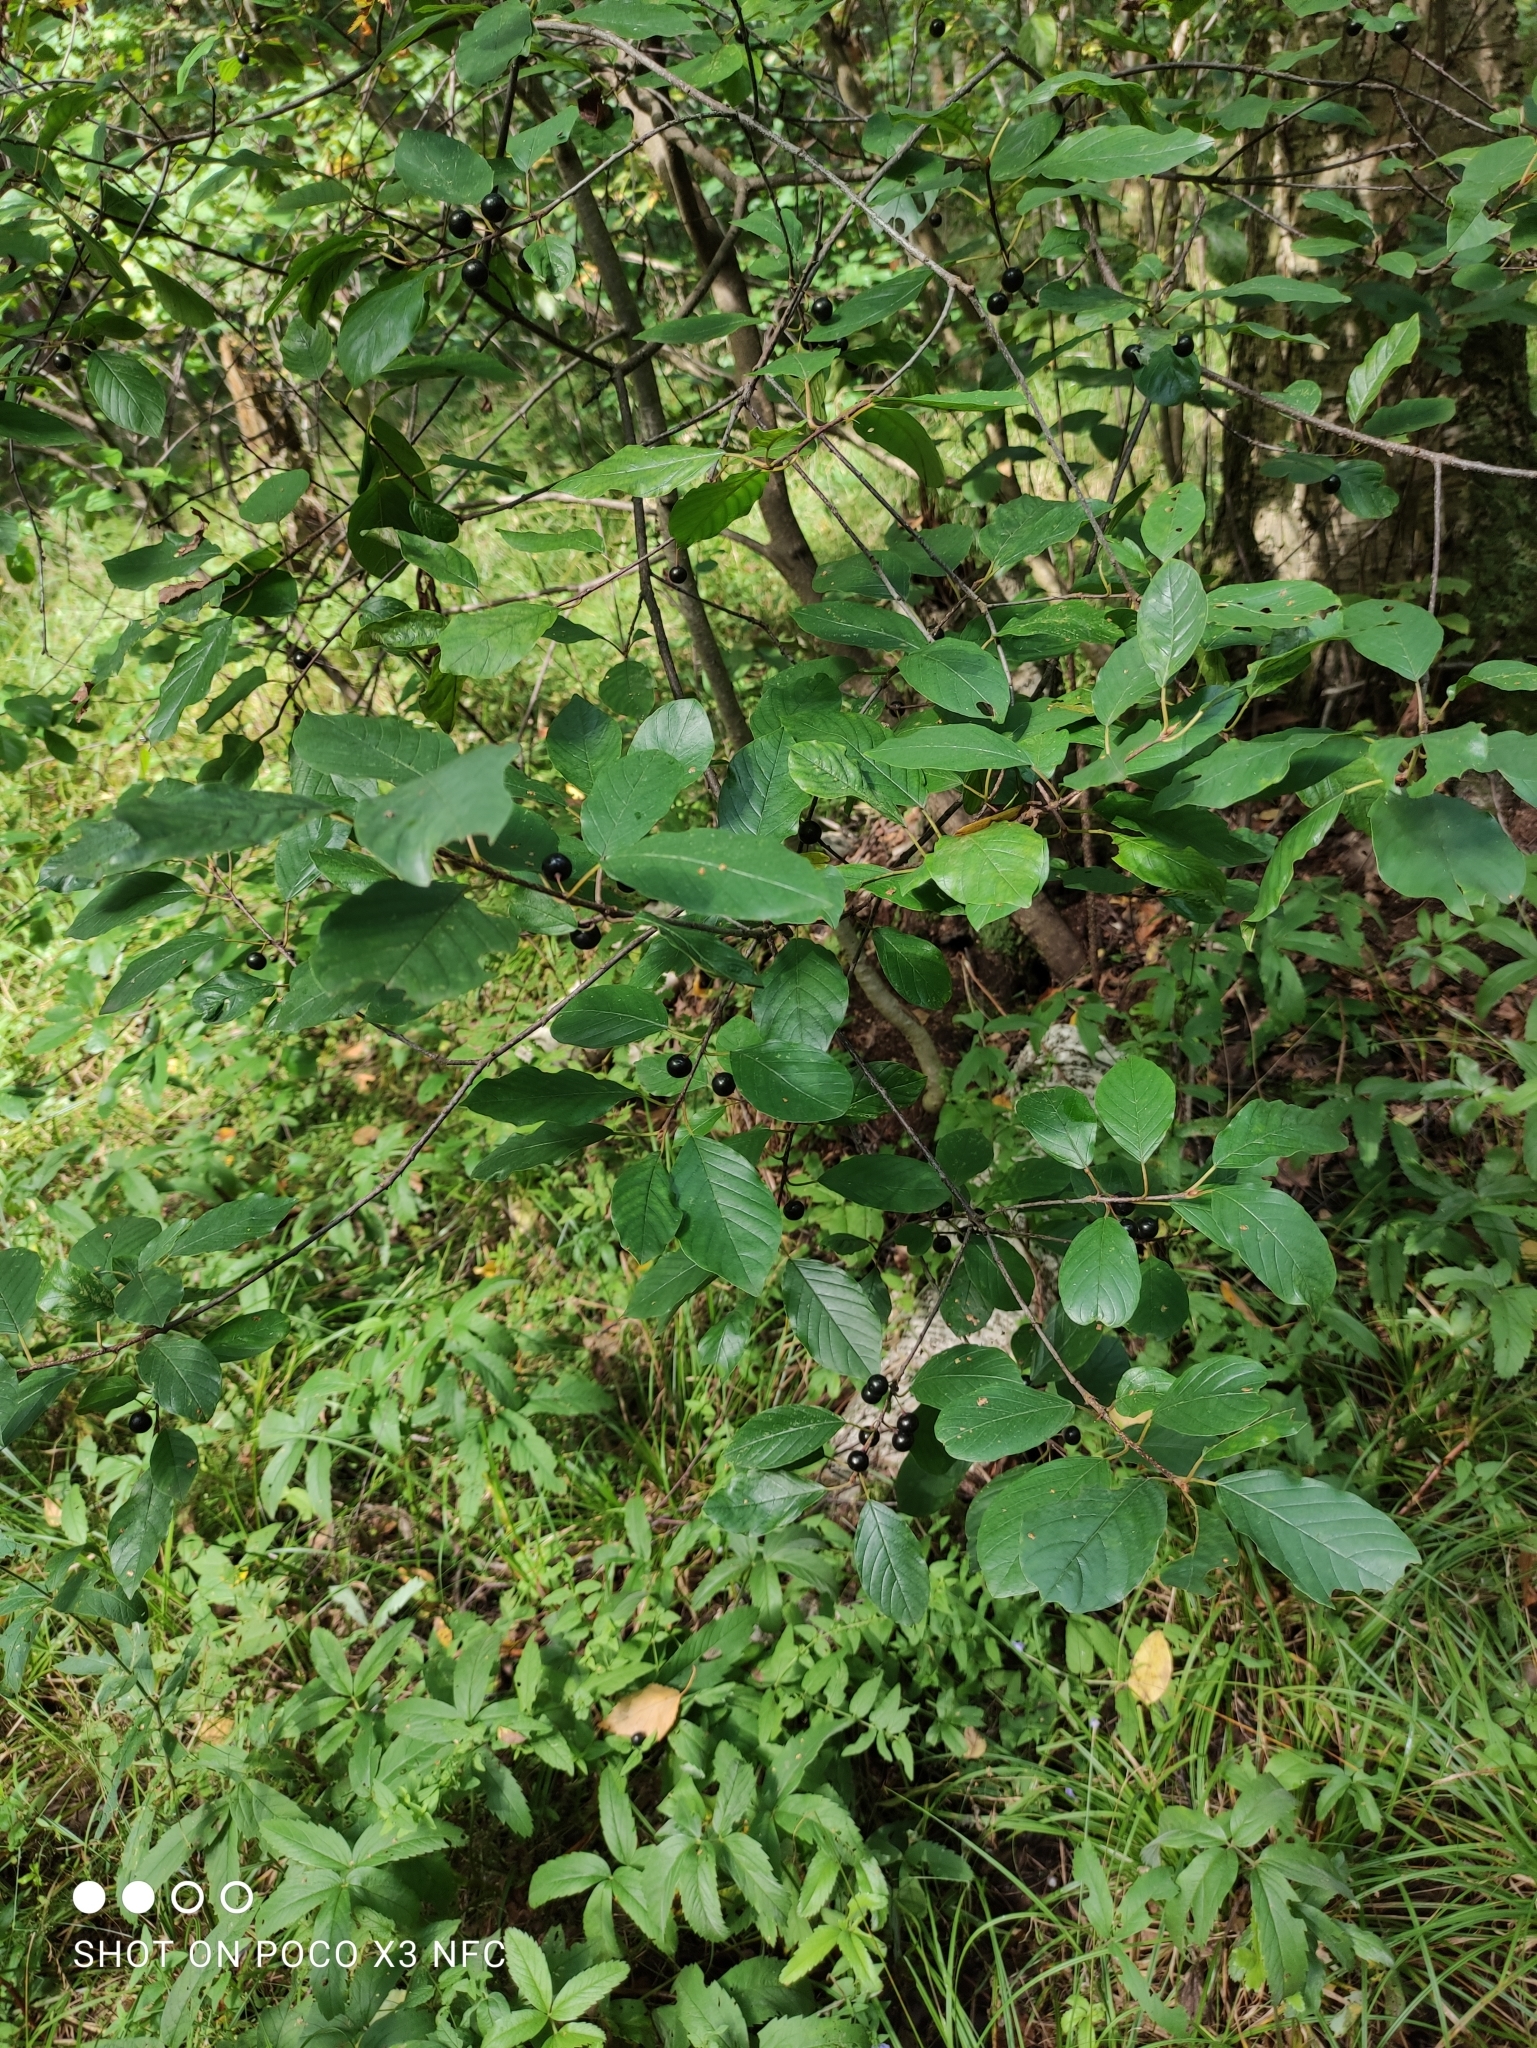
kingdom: Plantae
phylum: Tracheophyta
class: Magnoliopsida
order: Rosales
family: Rhamnaceae
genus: Frangula
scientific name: Frangula alnus
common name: Alder buckthorn
